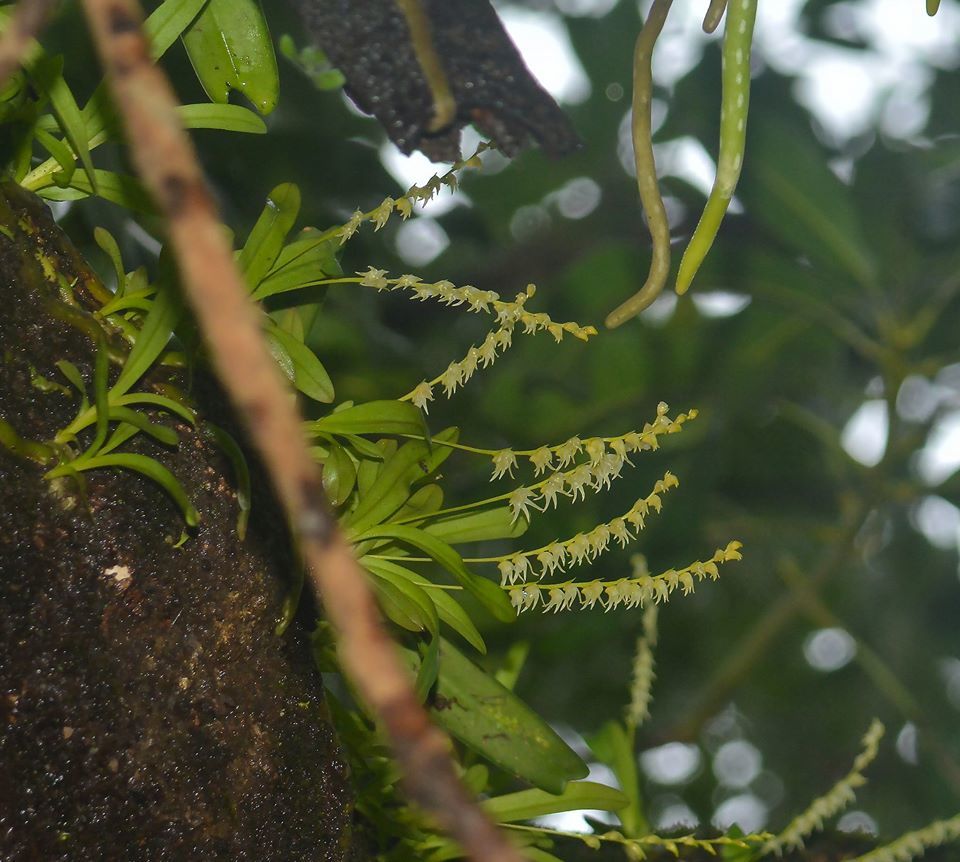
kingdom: Plantae
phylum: Tracheophyta
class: Liliopsida
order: Asparagales
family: Orchidaceae
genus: Porpax
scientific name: Porpax filiformis
